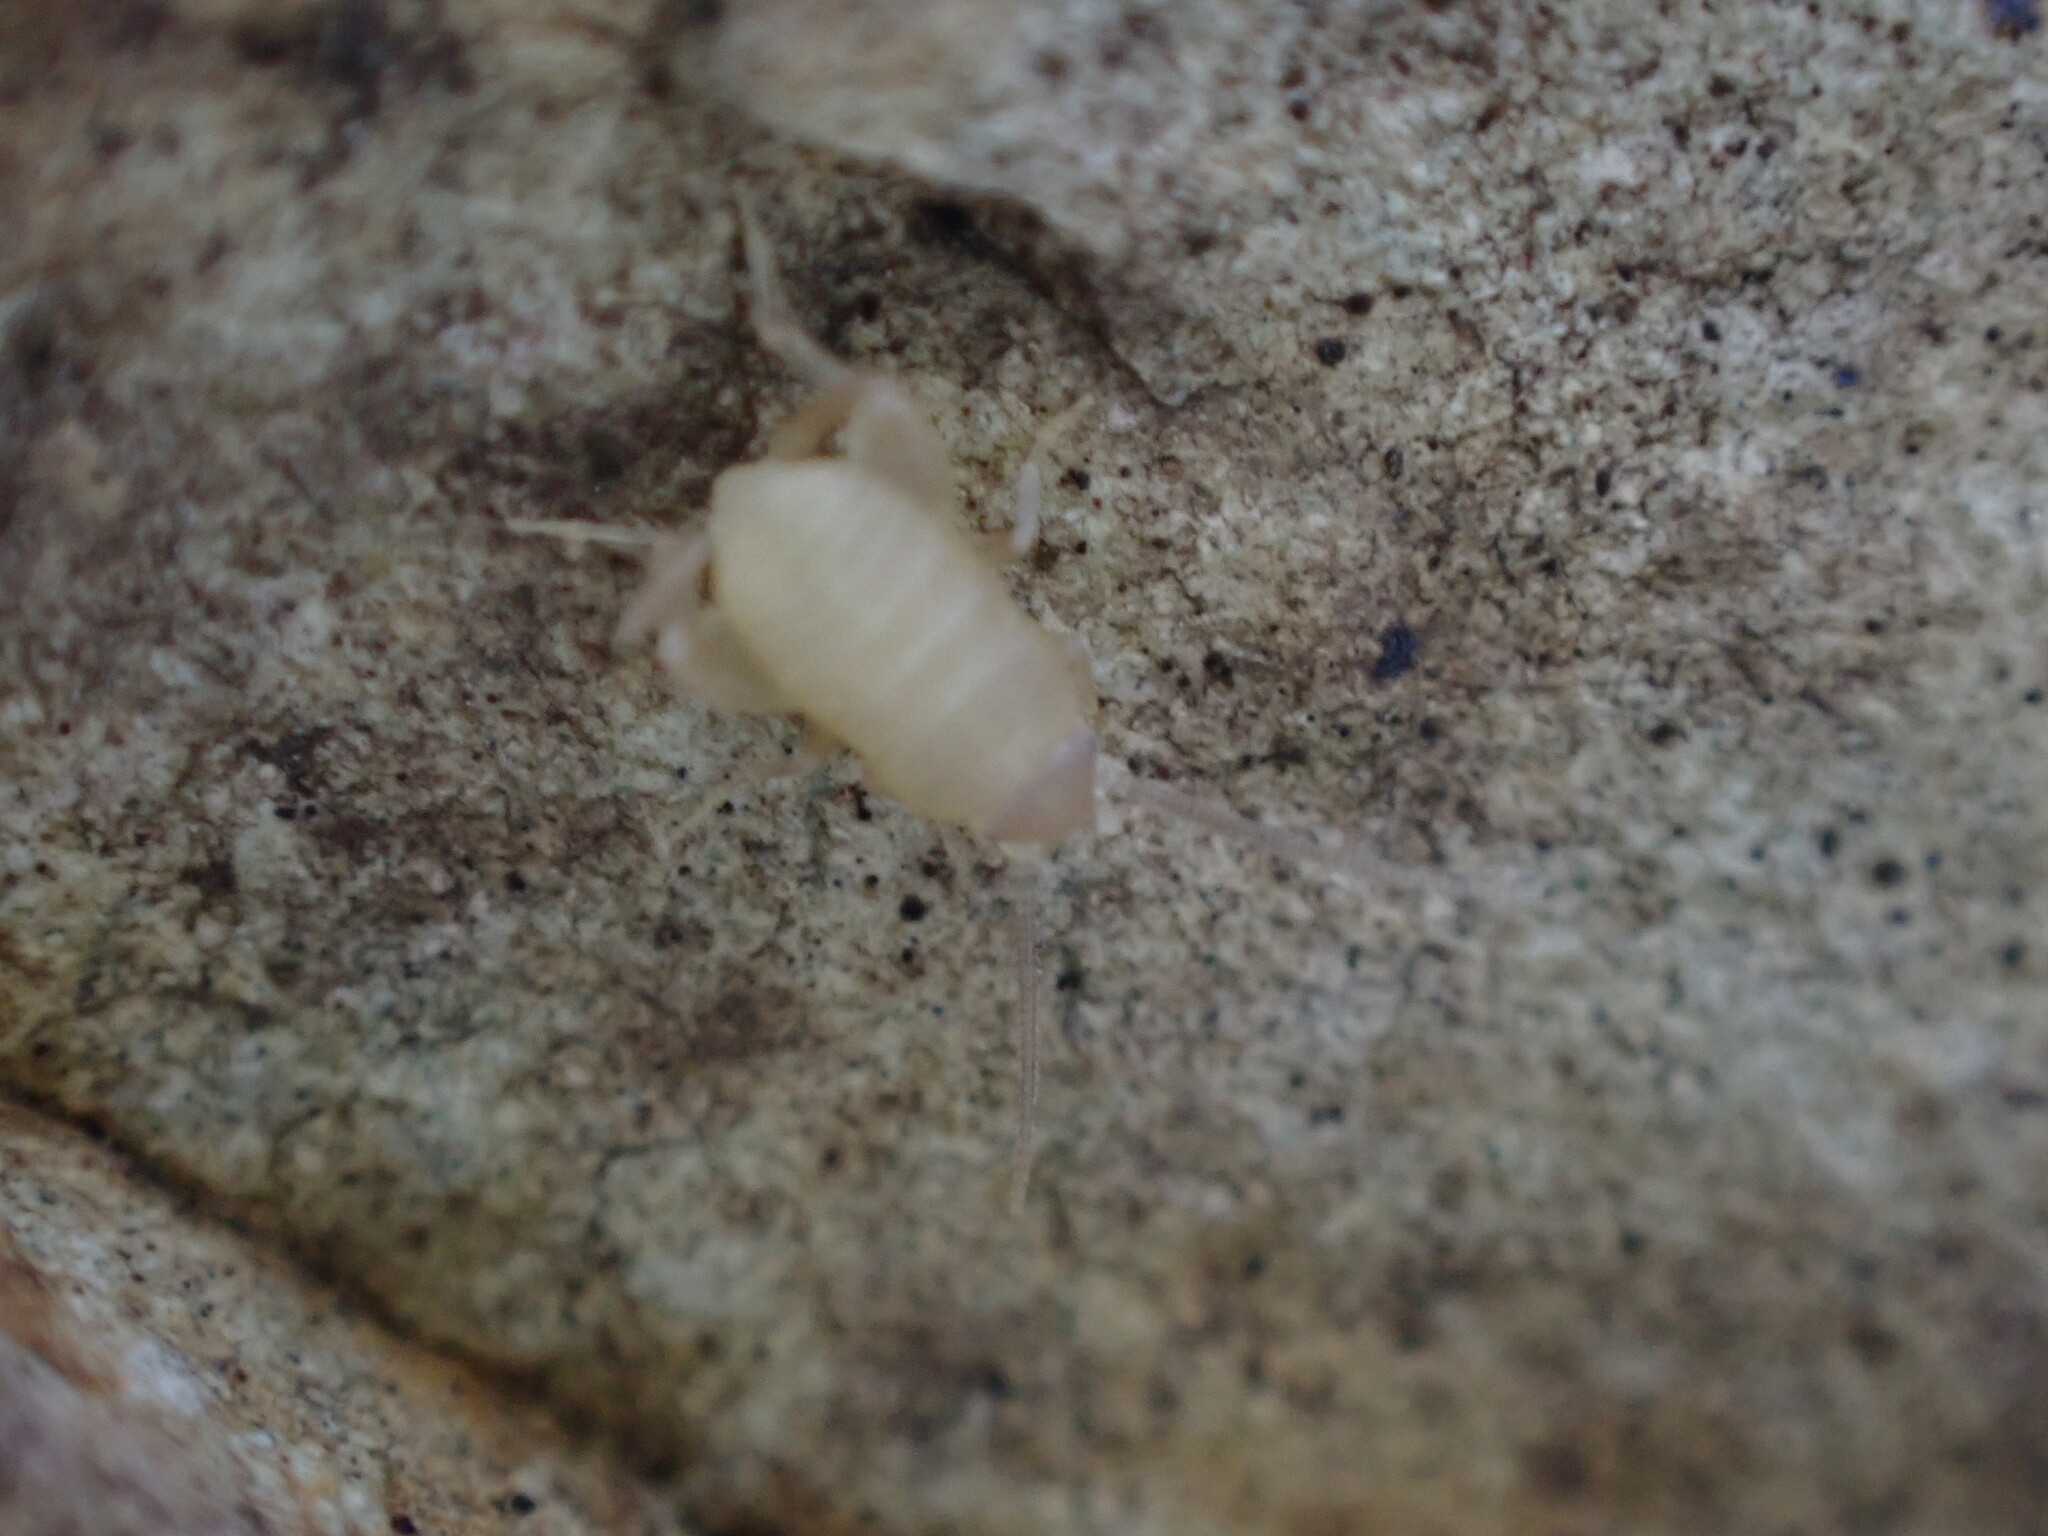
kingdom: Animalia
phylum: Arthropoda
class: Insecta
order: Orthoptera
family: Myrmecophilidae
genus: Myrmecophilus
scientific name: Myrmecophilus oregonensis
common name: Oregon ant cricket
